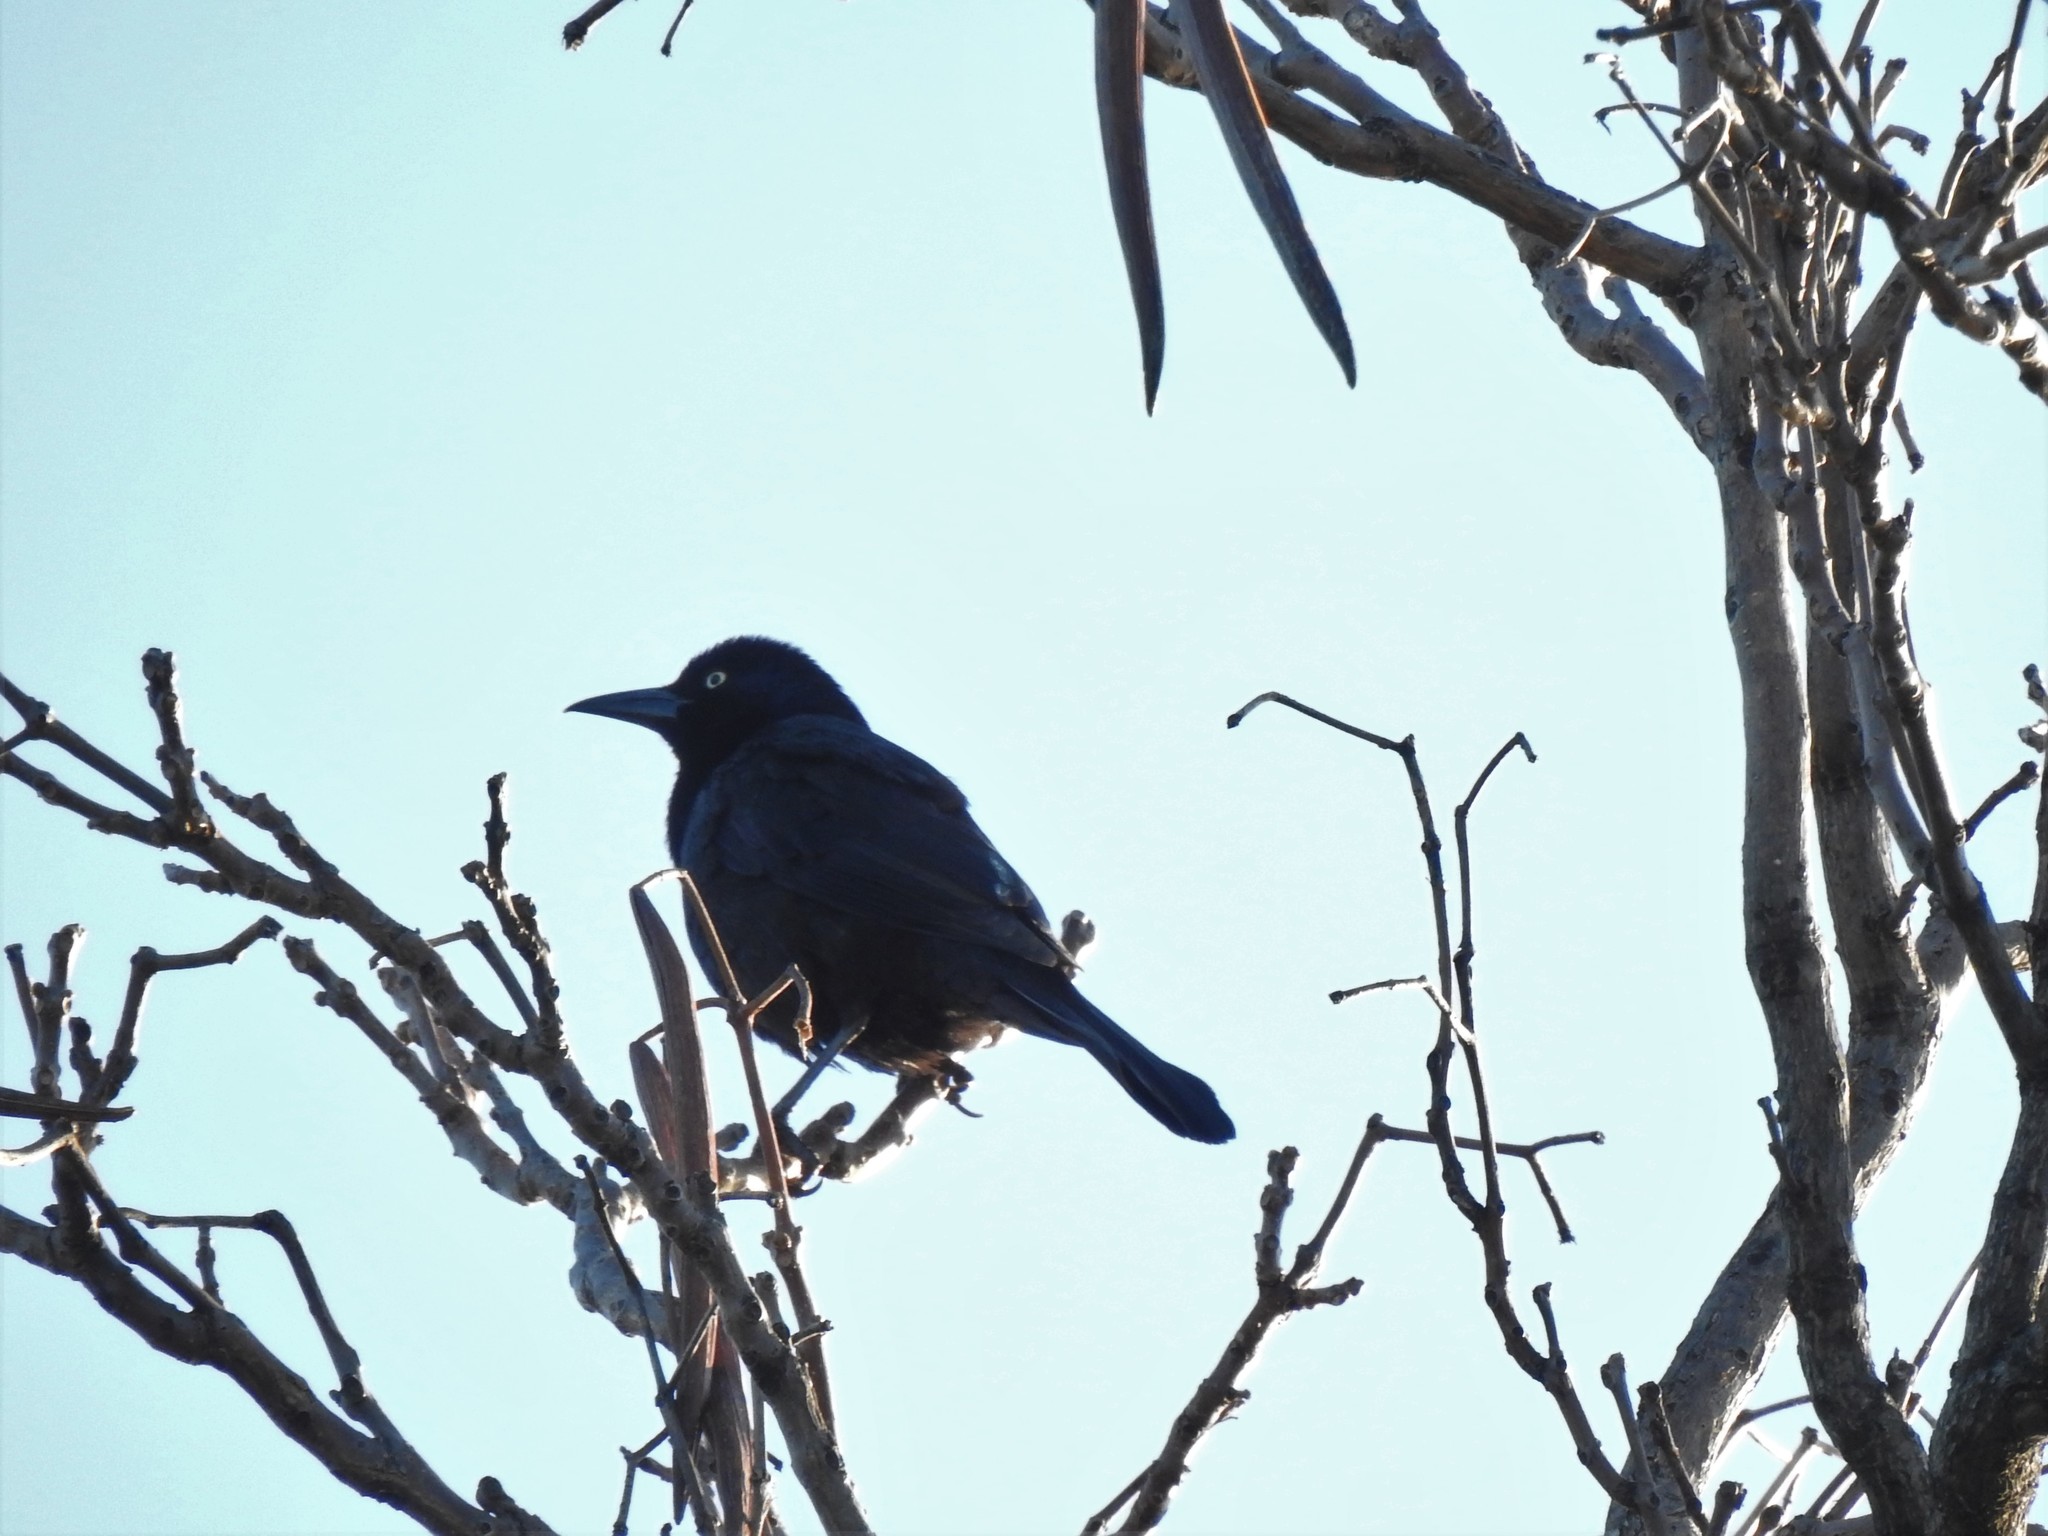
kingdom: Animalia
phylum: Chordata
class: Aves
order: Passeriformes
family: Icteridae
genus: Quiscalus
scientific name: Quiscalus quiscula
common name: Common grackle
